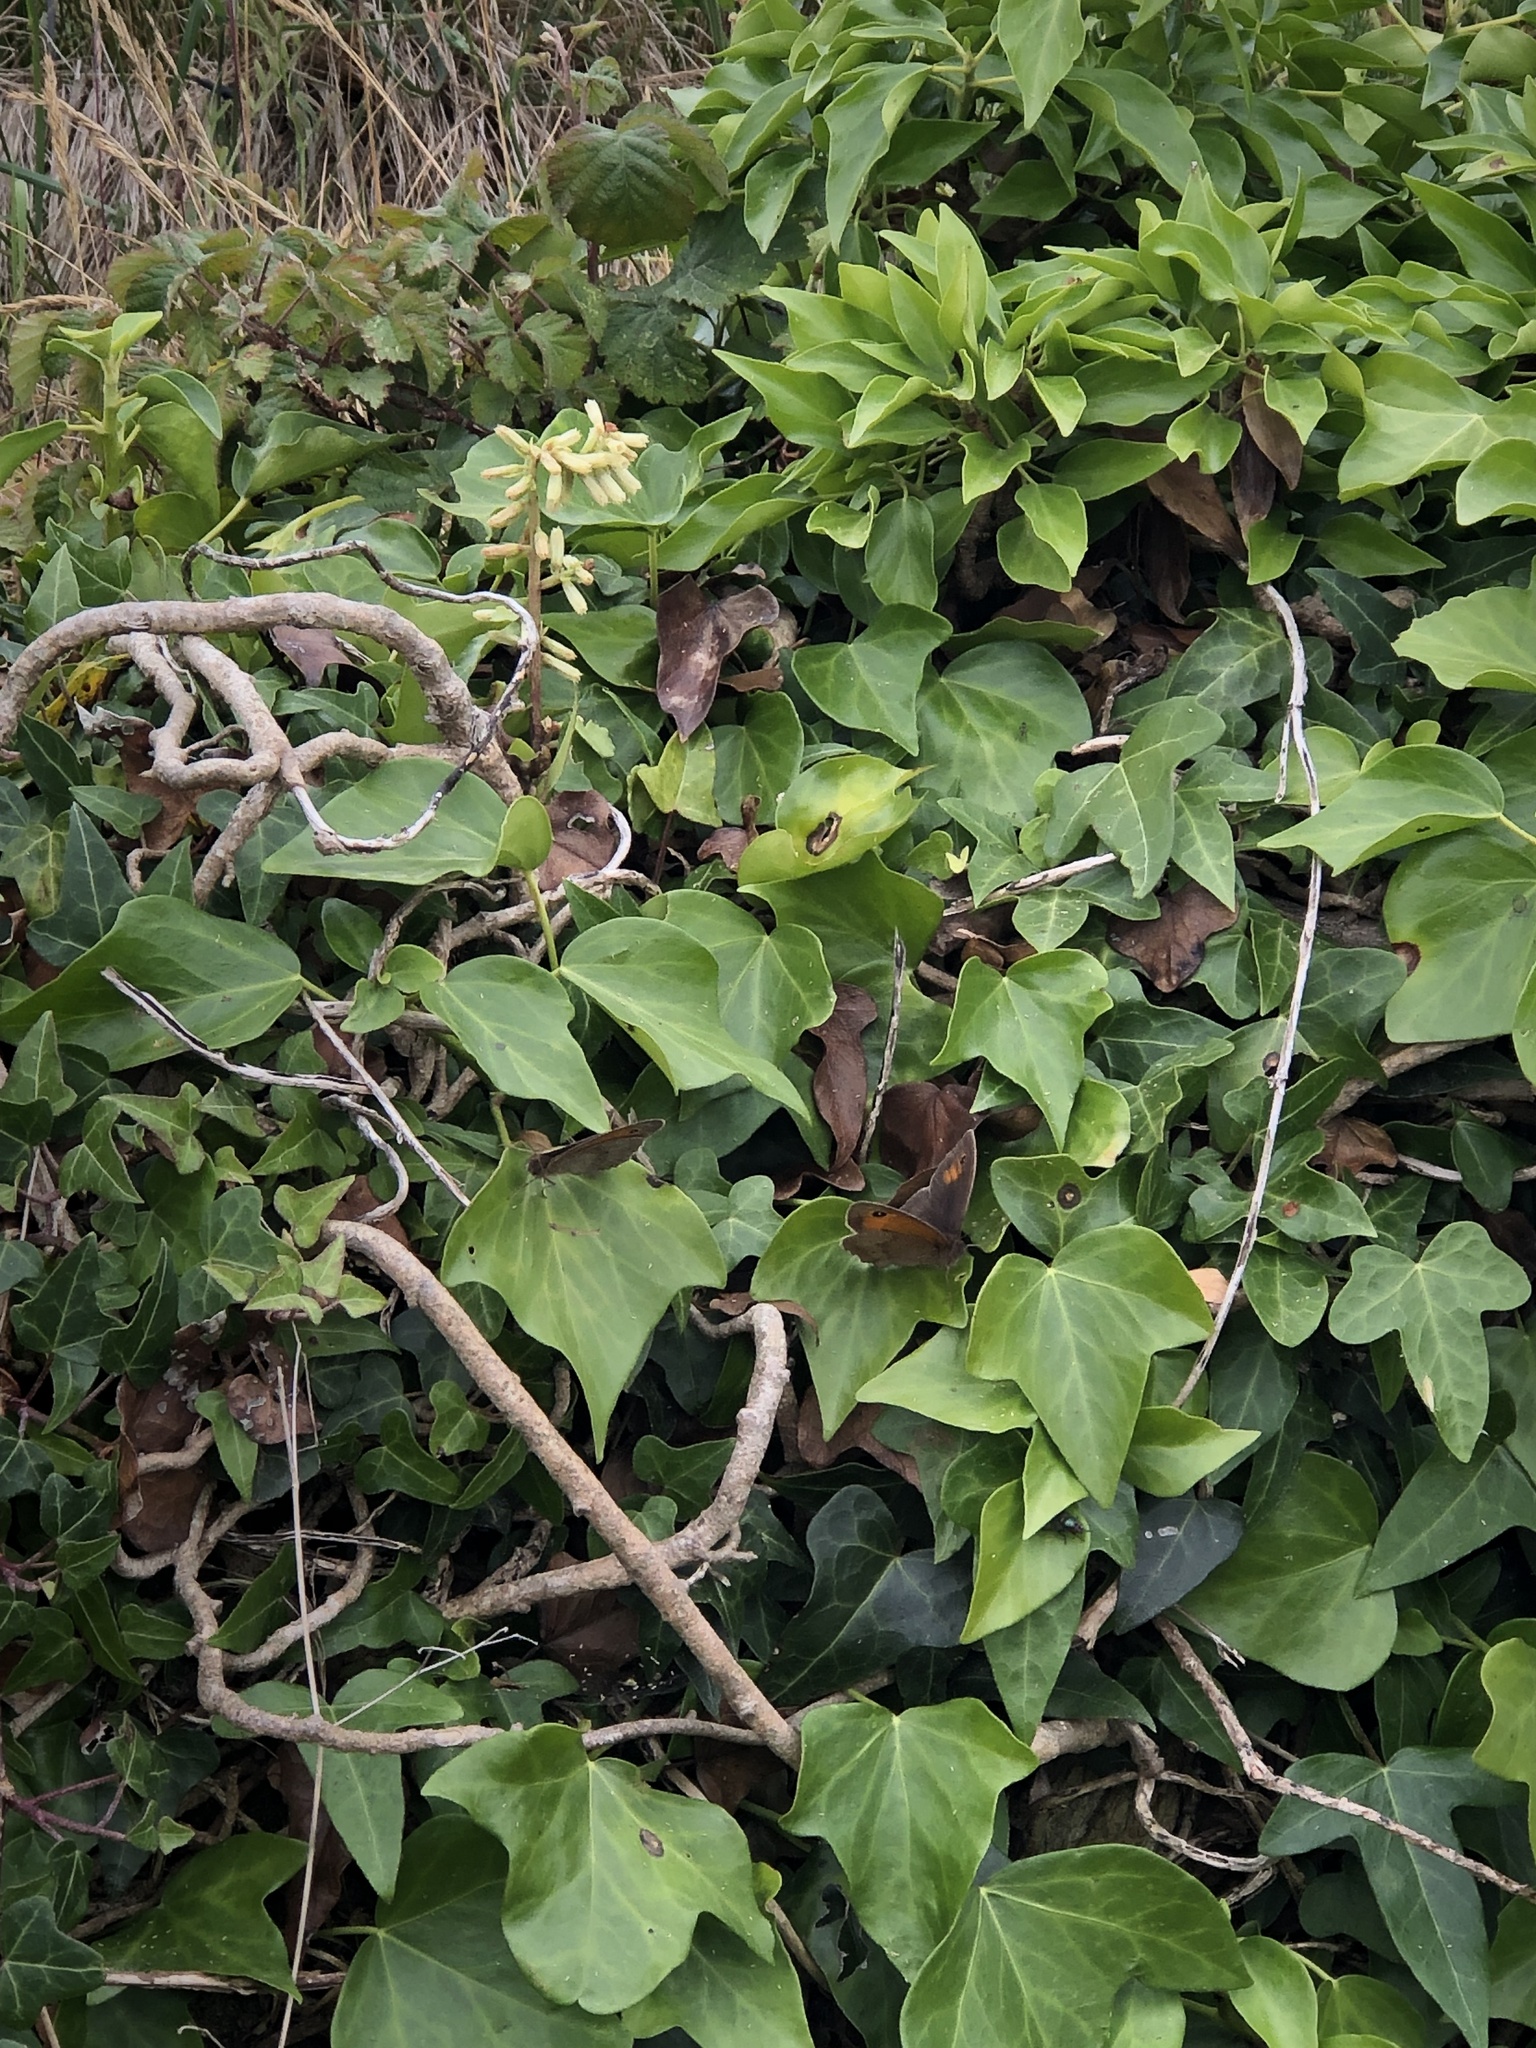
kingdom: Animalia
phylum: Arthropoda
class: Insecta
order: Lepidoptera
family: Nymphalidae
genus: Maniola
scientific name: Maniola jurtina
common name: Meadow brown
